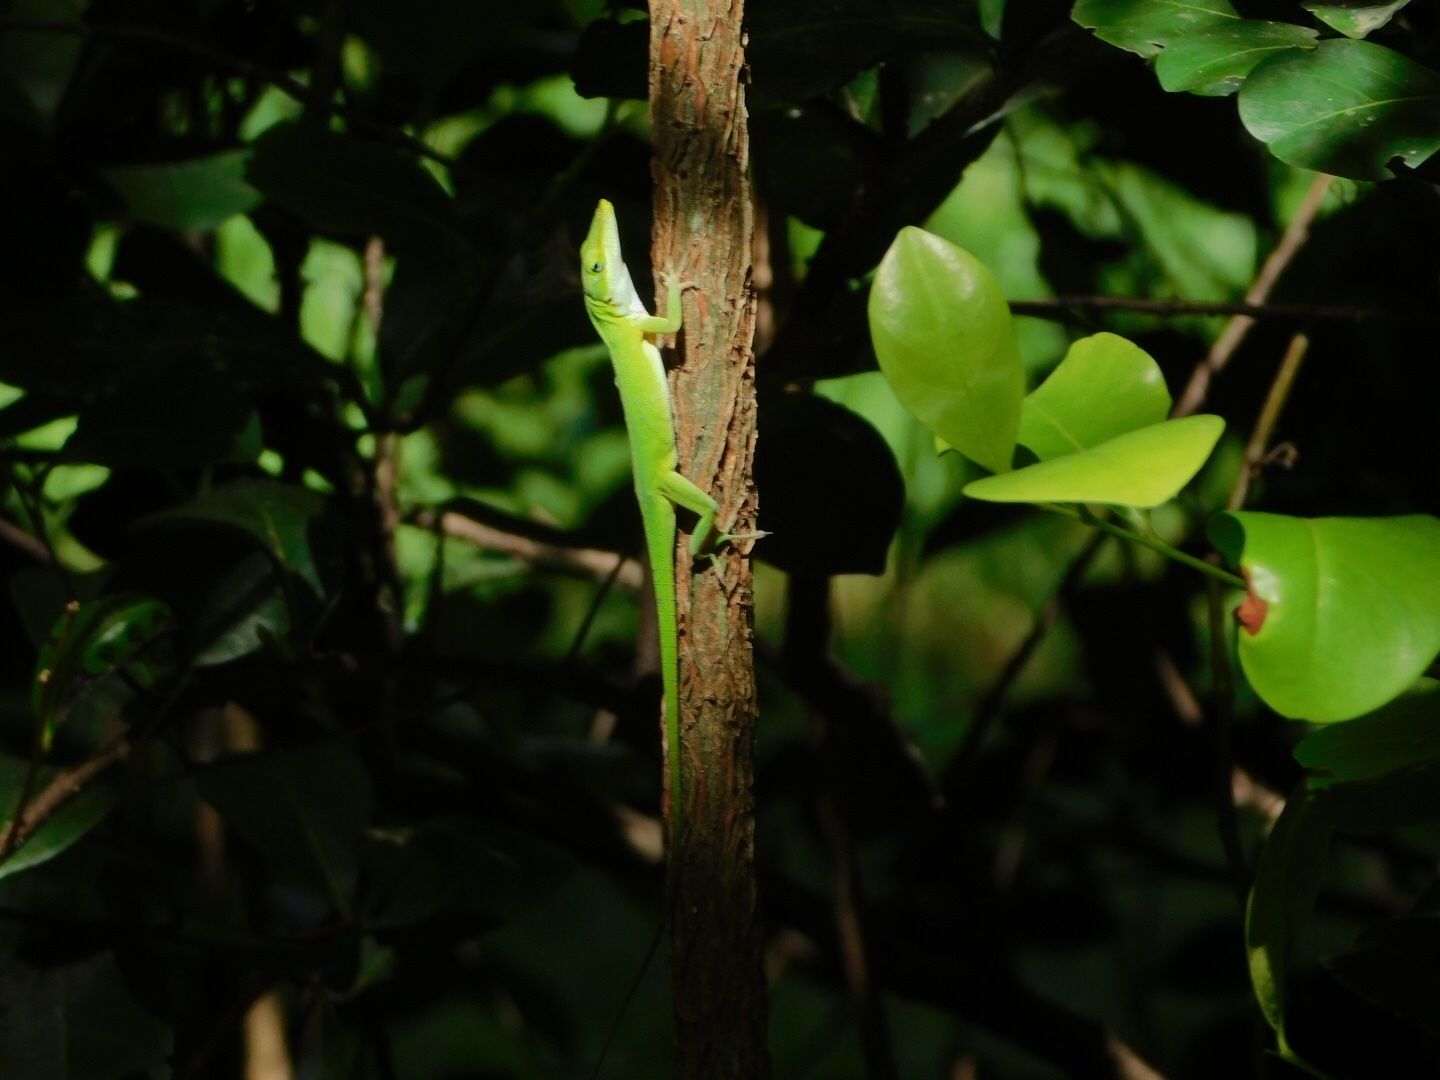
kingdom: Animalia
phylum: Chordata
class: Squamata
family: Dactyloidae
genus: Anolis
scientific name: Anolis carolinensis
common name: Green anole
